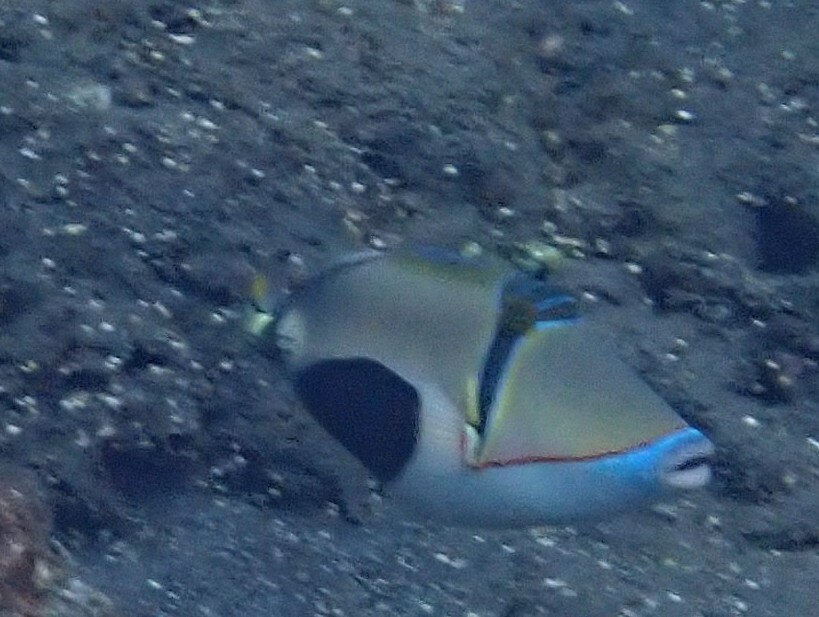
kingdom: Animalia
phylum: Chordata
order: Tetraodontiformes
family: Balistidae
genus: Rhinecanthus
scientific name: Rhinecanthus verrucosus
